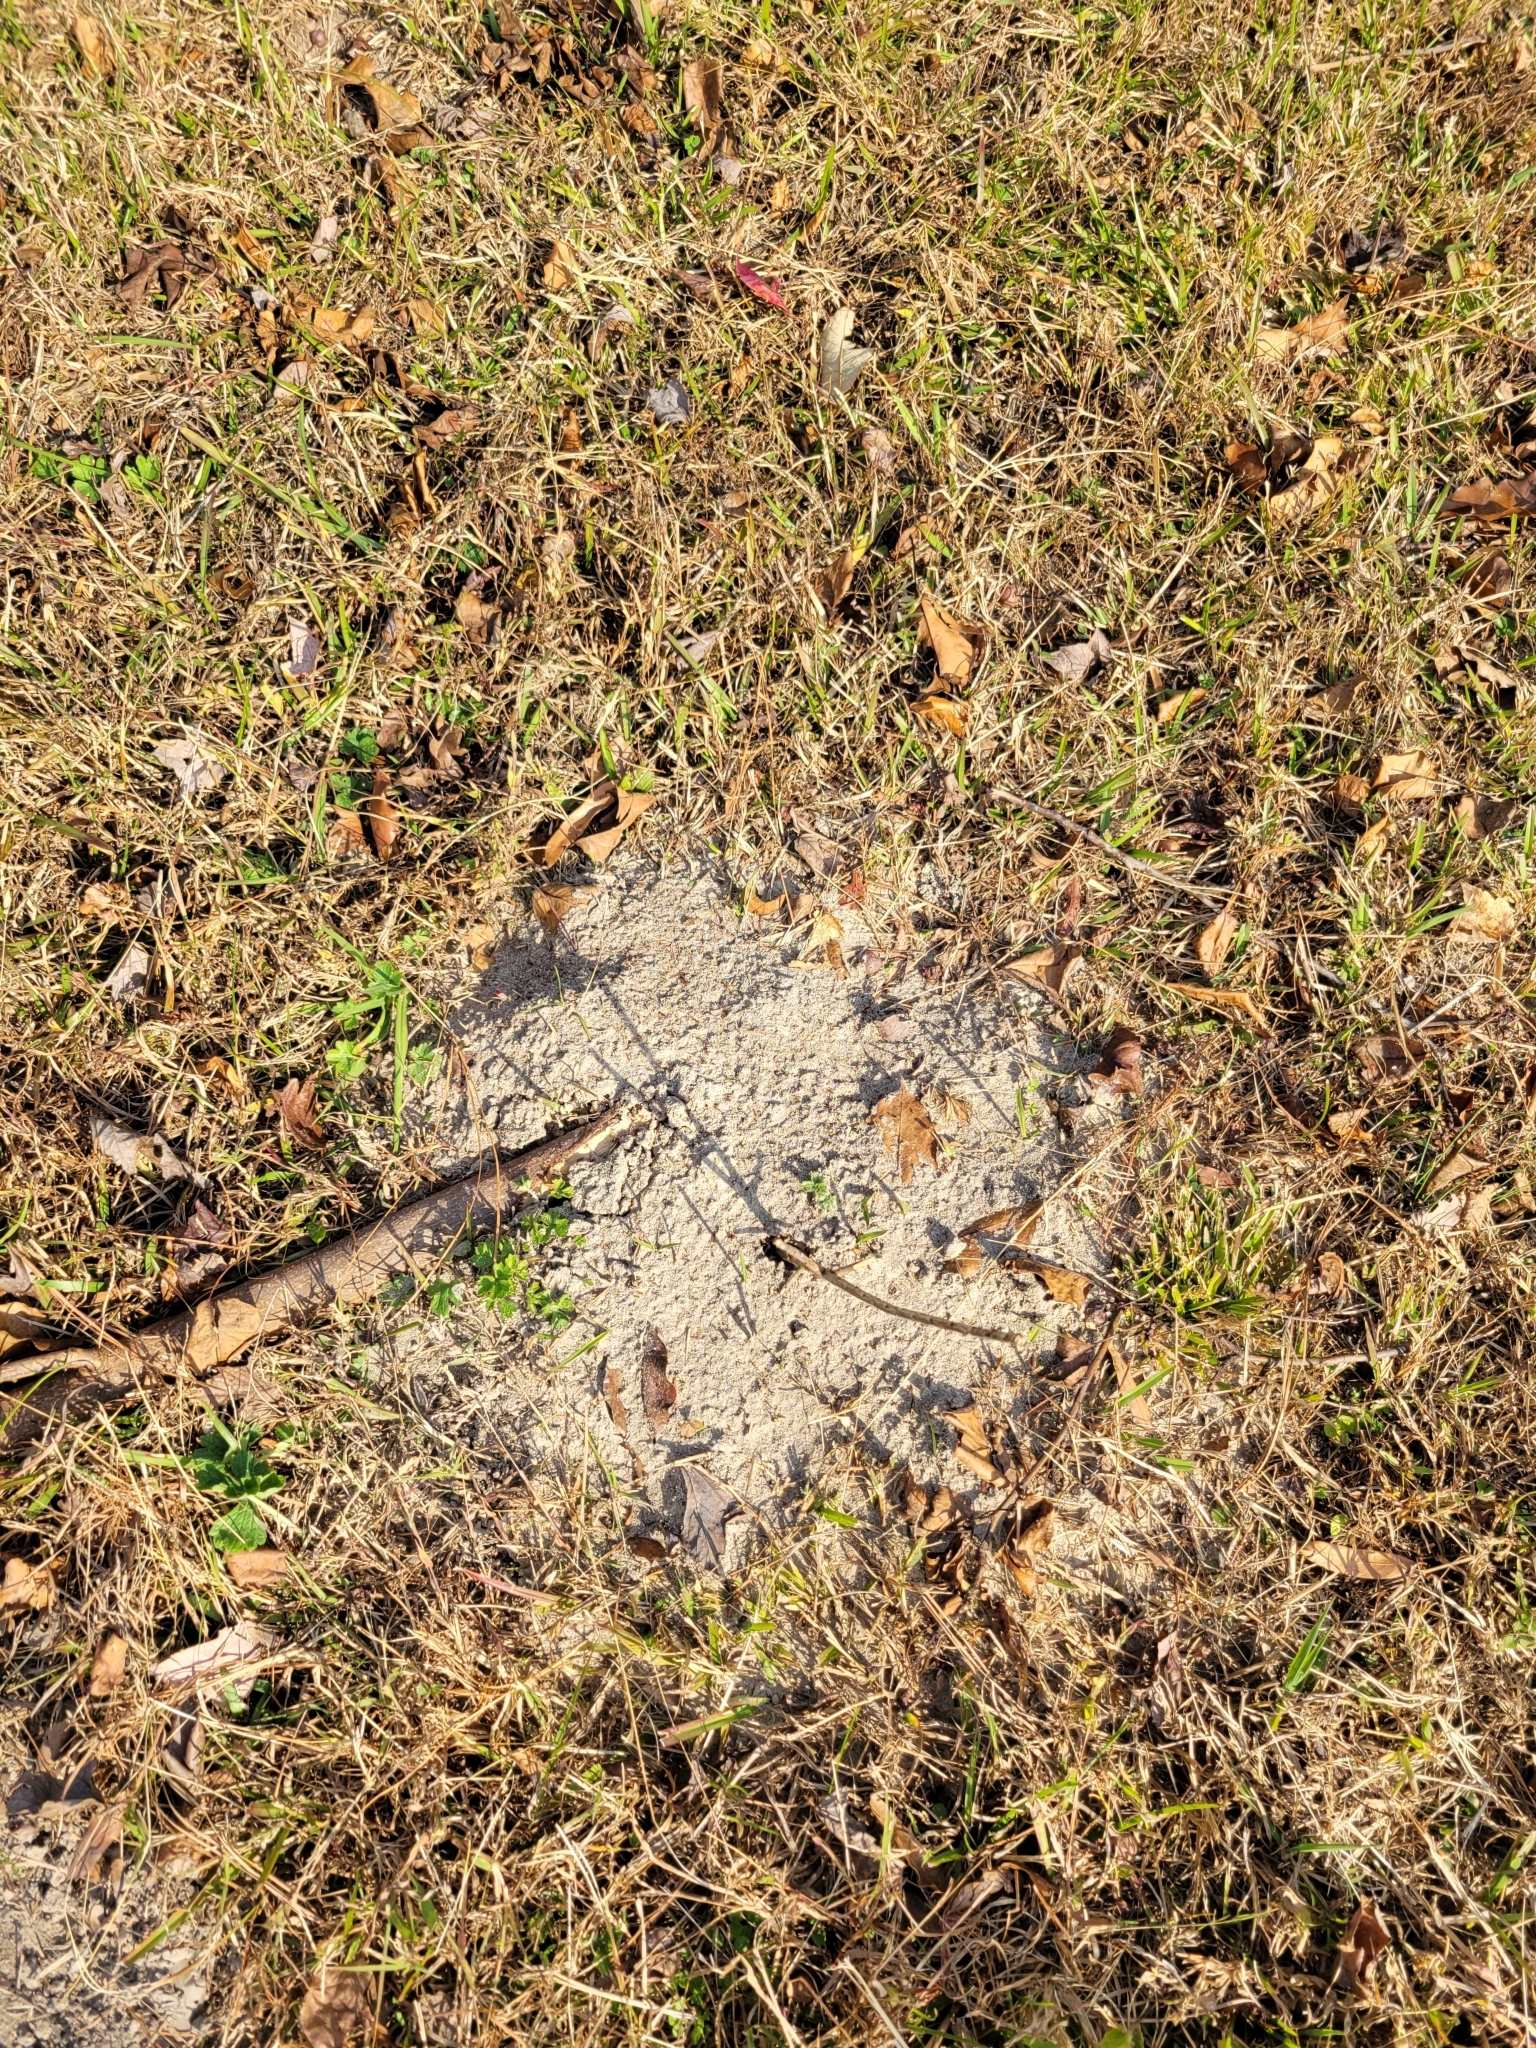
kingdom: Animalia
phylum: Arthropoda
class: Insecta
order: Hymenoptera
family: Formicidae
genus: Solenopsis
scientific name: Solenopsis invicta
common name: Red imported fire ant
